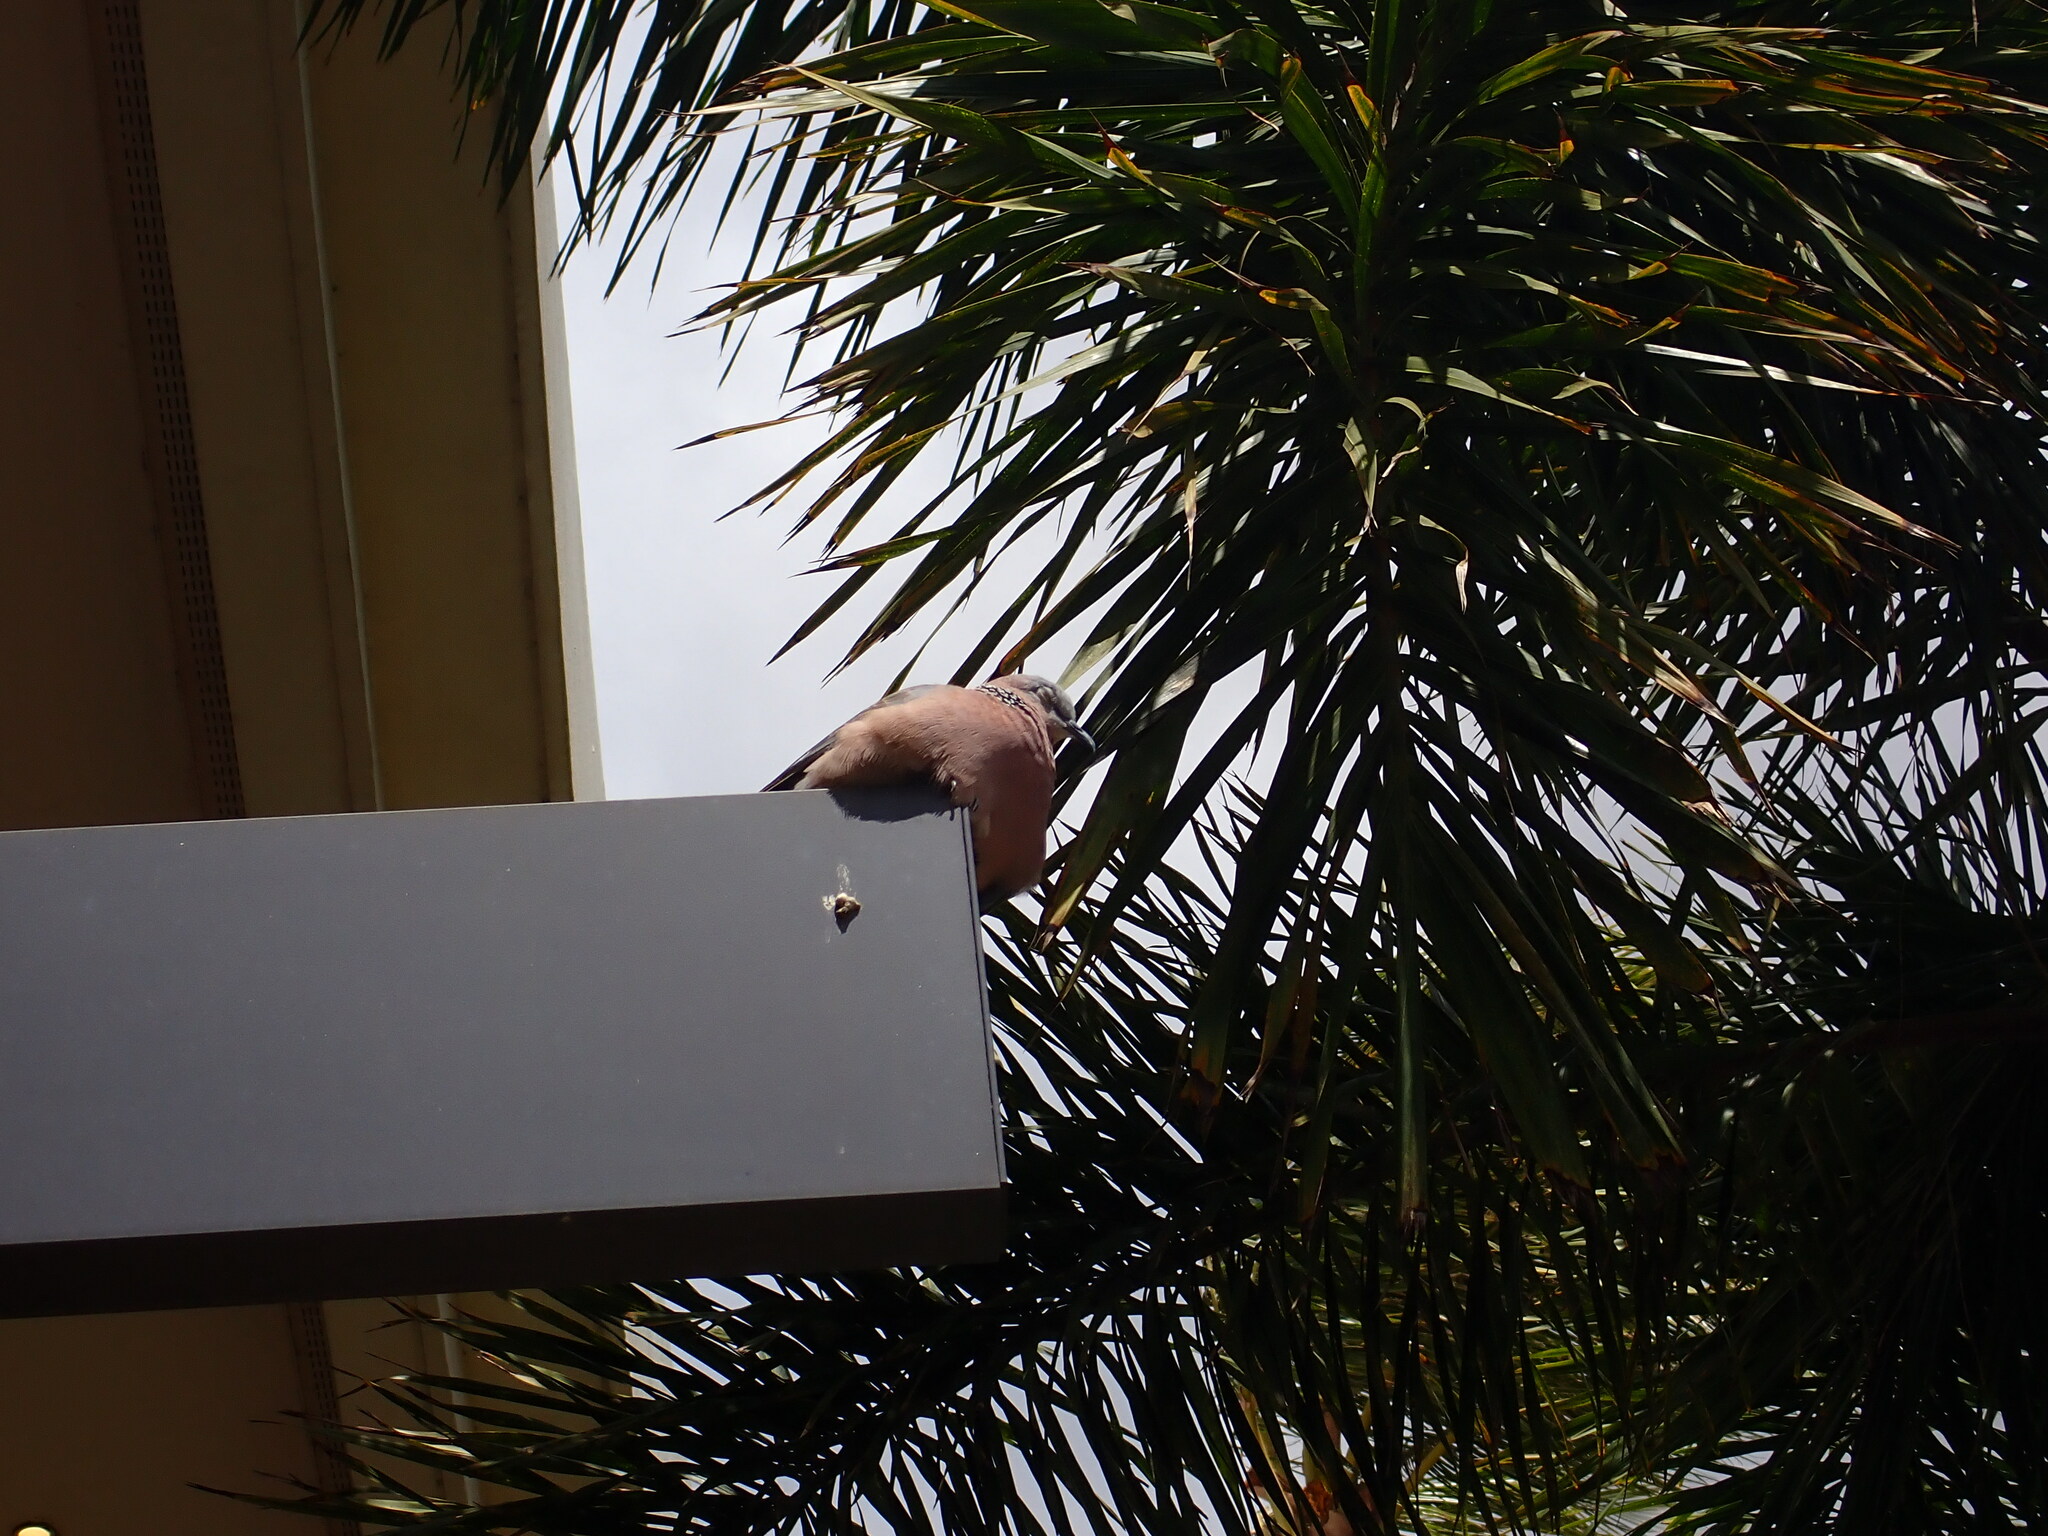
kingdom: Animalia
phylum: Chordata
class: Aves
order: Columbiformes
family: Columbidae
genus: Spilopelia
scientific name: Spilopelia chinensis
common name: Spotted dove
